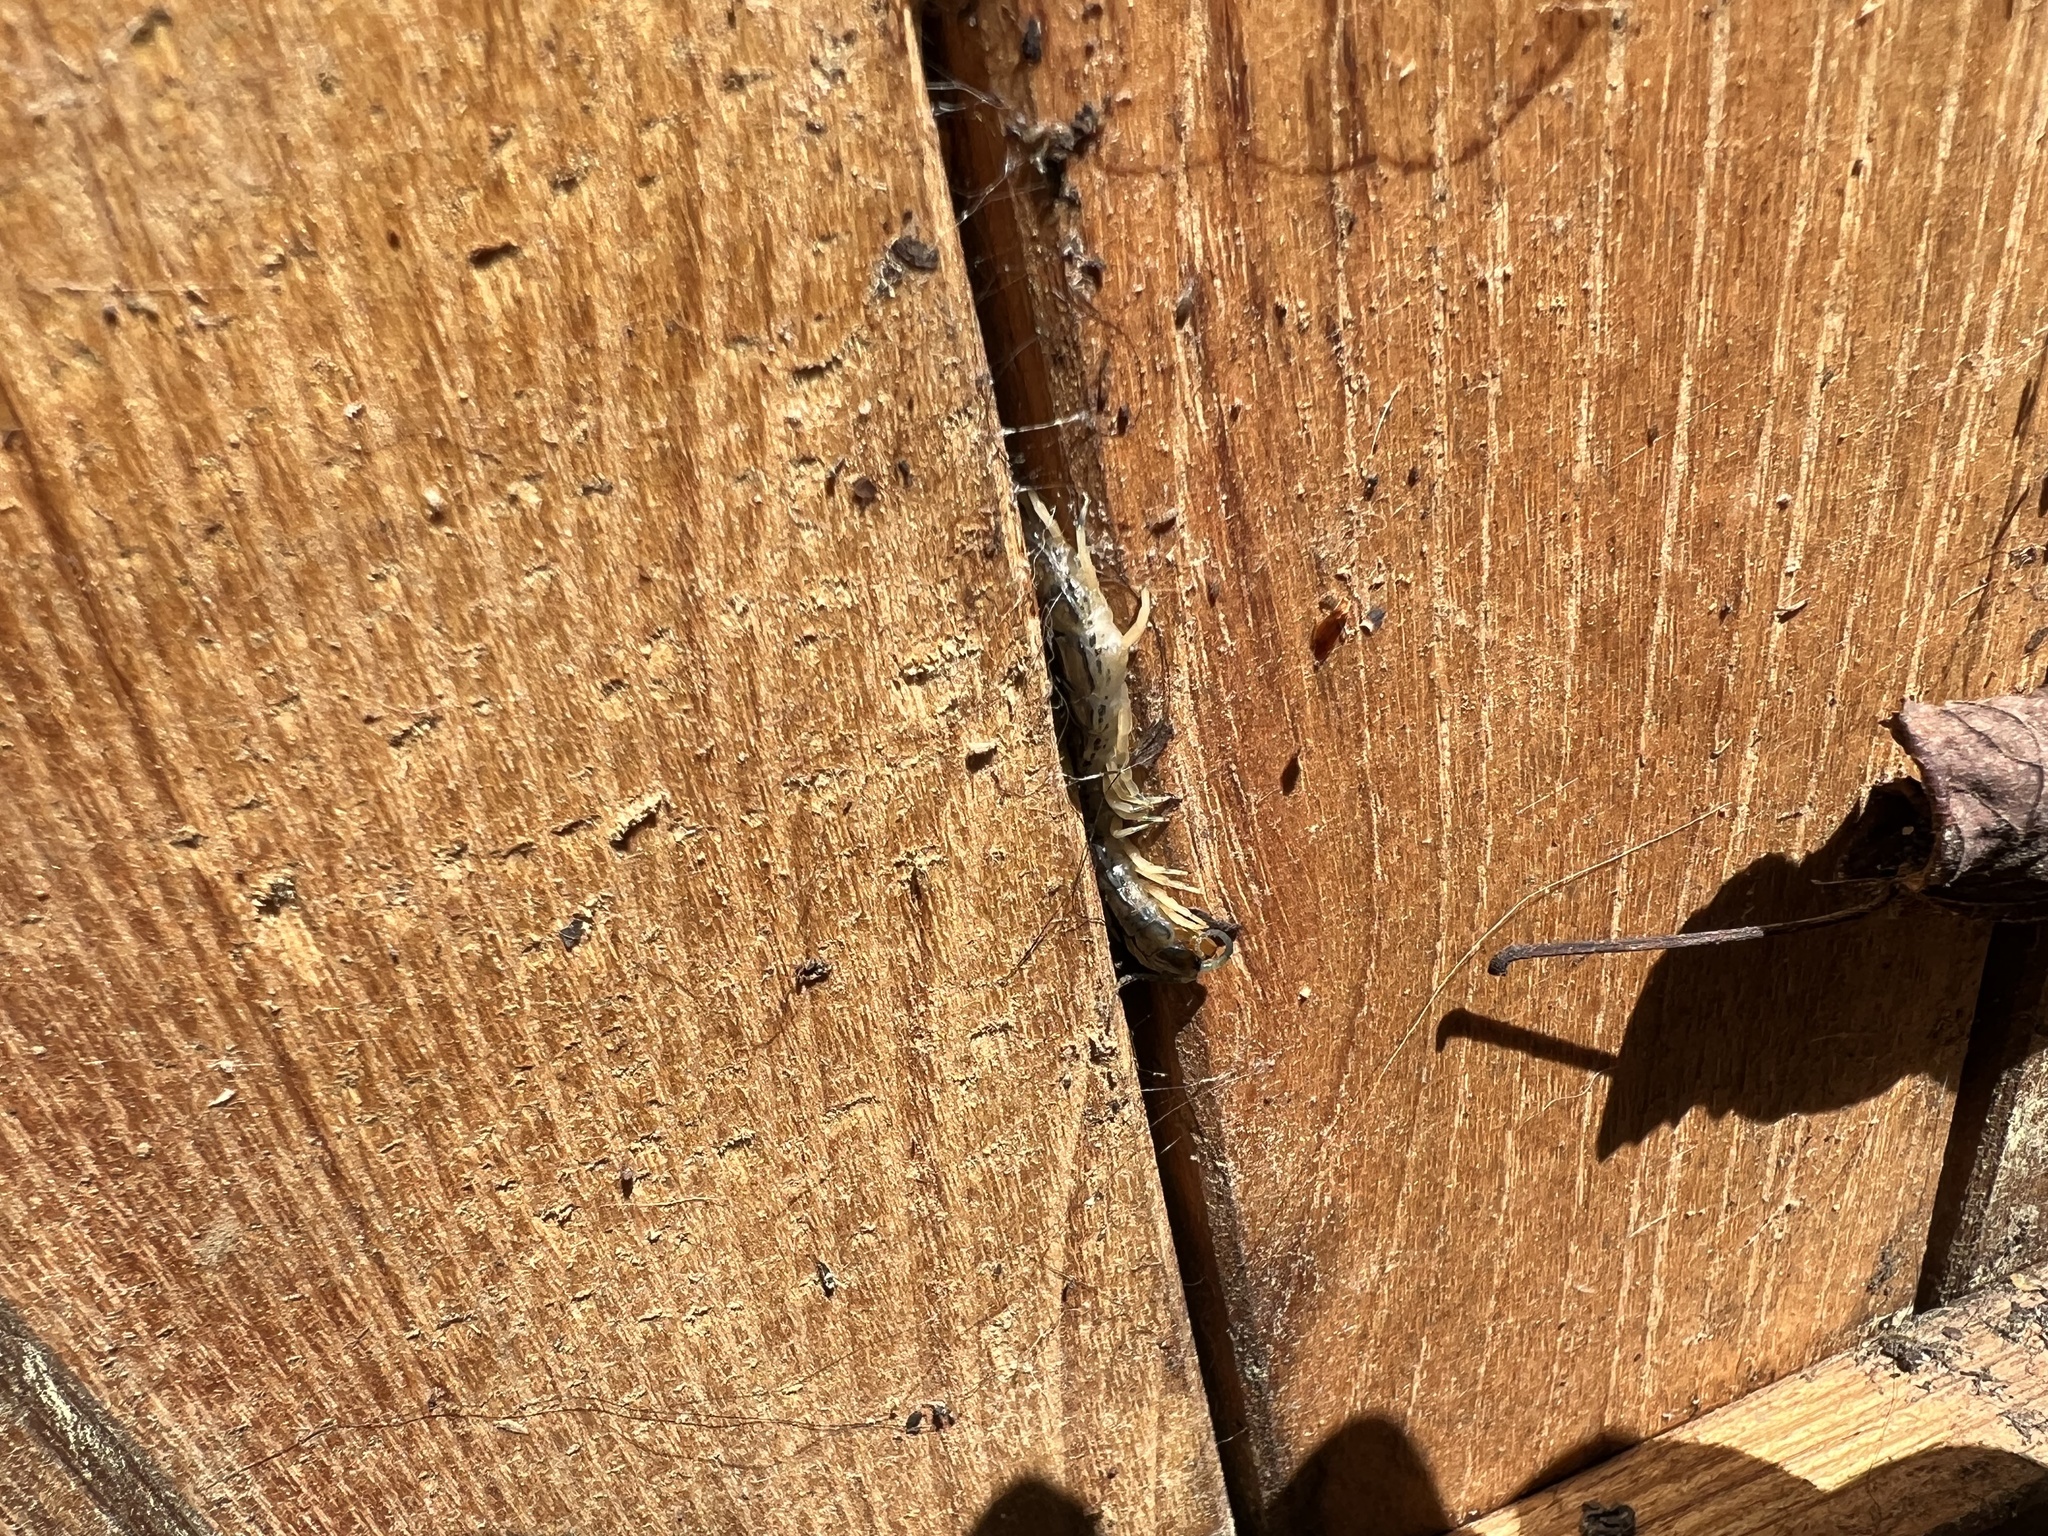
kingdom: Animalia
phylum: Arthropoda
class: Chilopoda
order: Scolopendromorpha
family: Scolopendridae
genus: Hemiscolopendra
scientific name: Hemiscolopendra marginata
